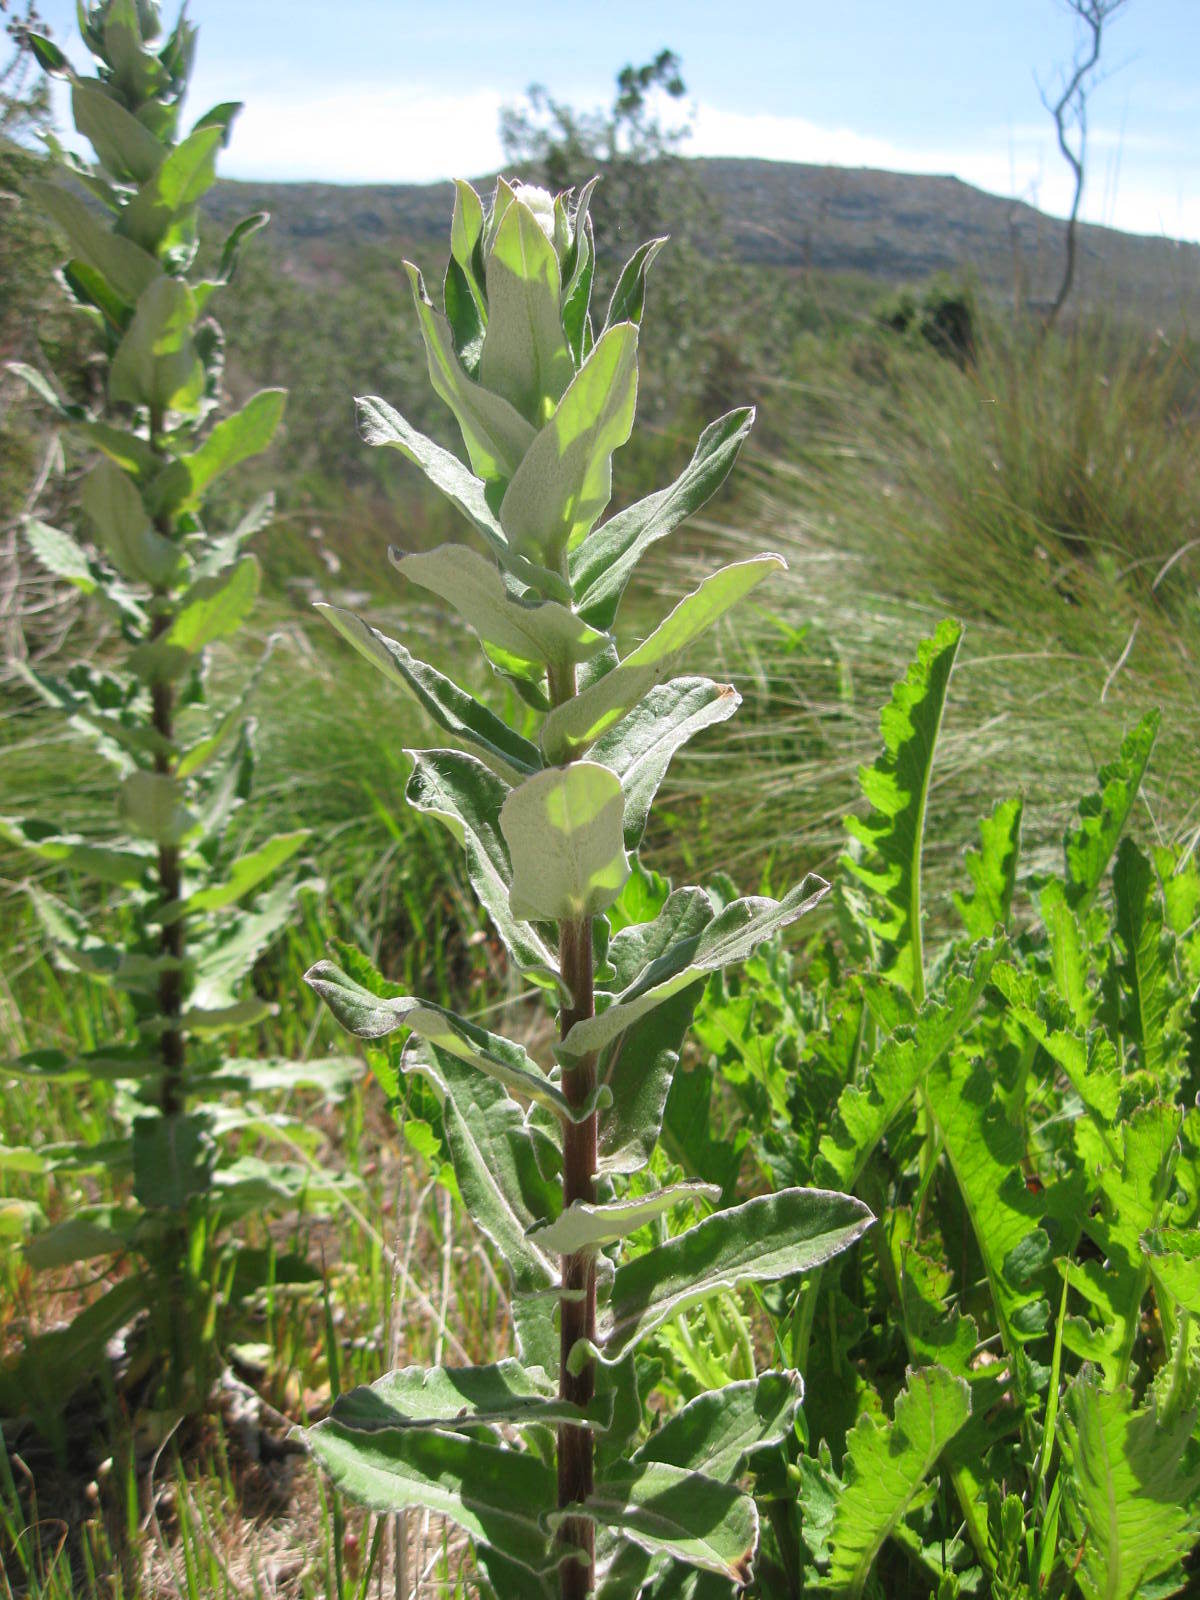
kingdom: Plantae
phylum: Tracheophyta
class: Magnoliopsida
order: Asterales
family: Asteraceae
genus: Helichrysum
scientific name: Helichrysum foetidum
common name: Stinking everlasting
